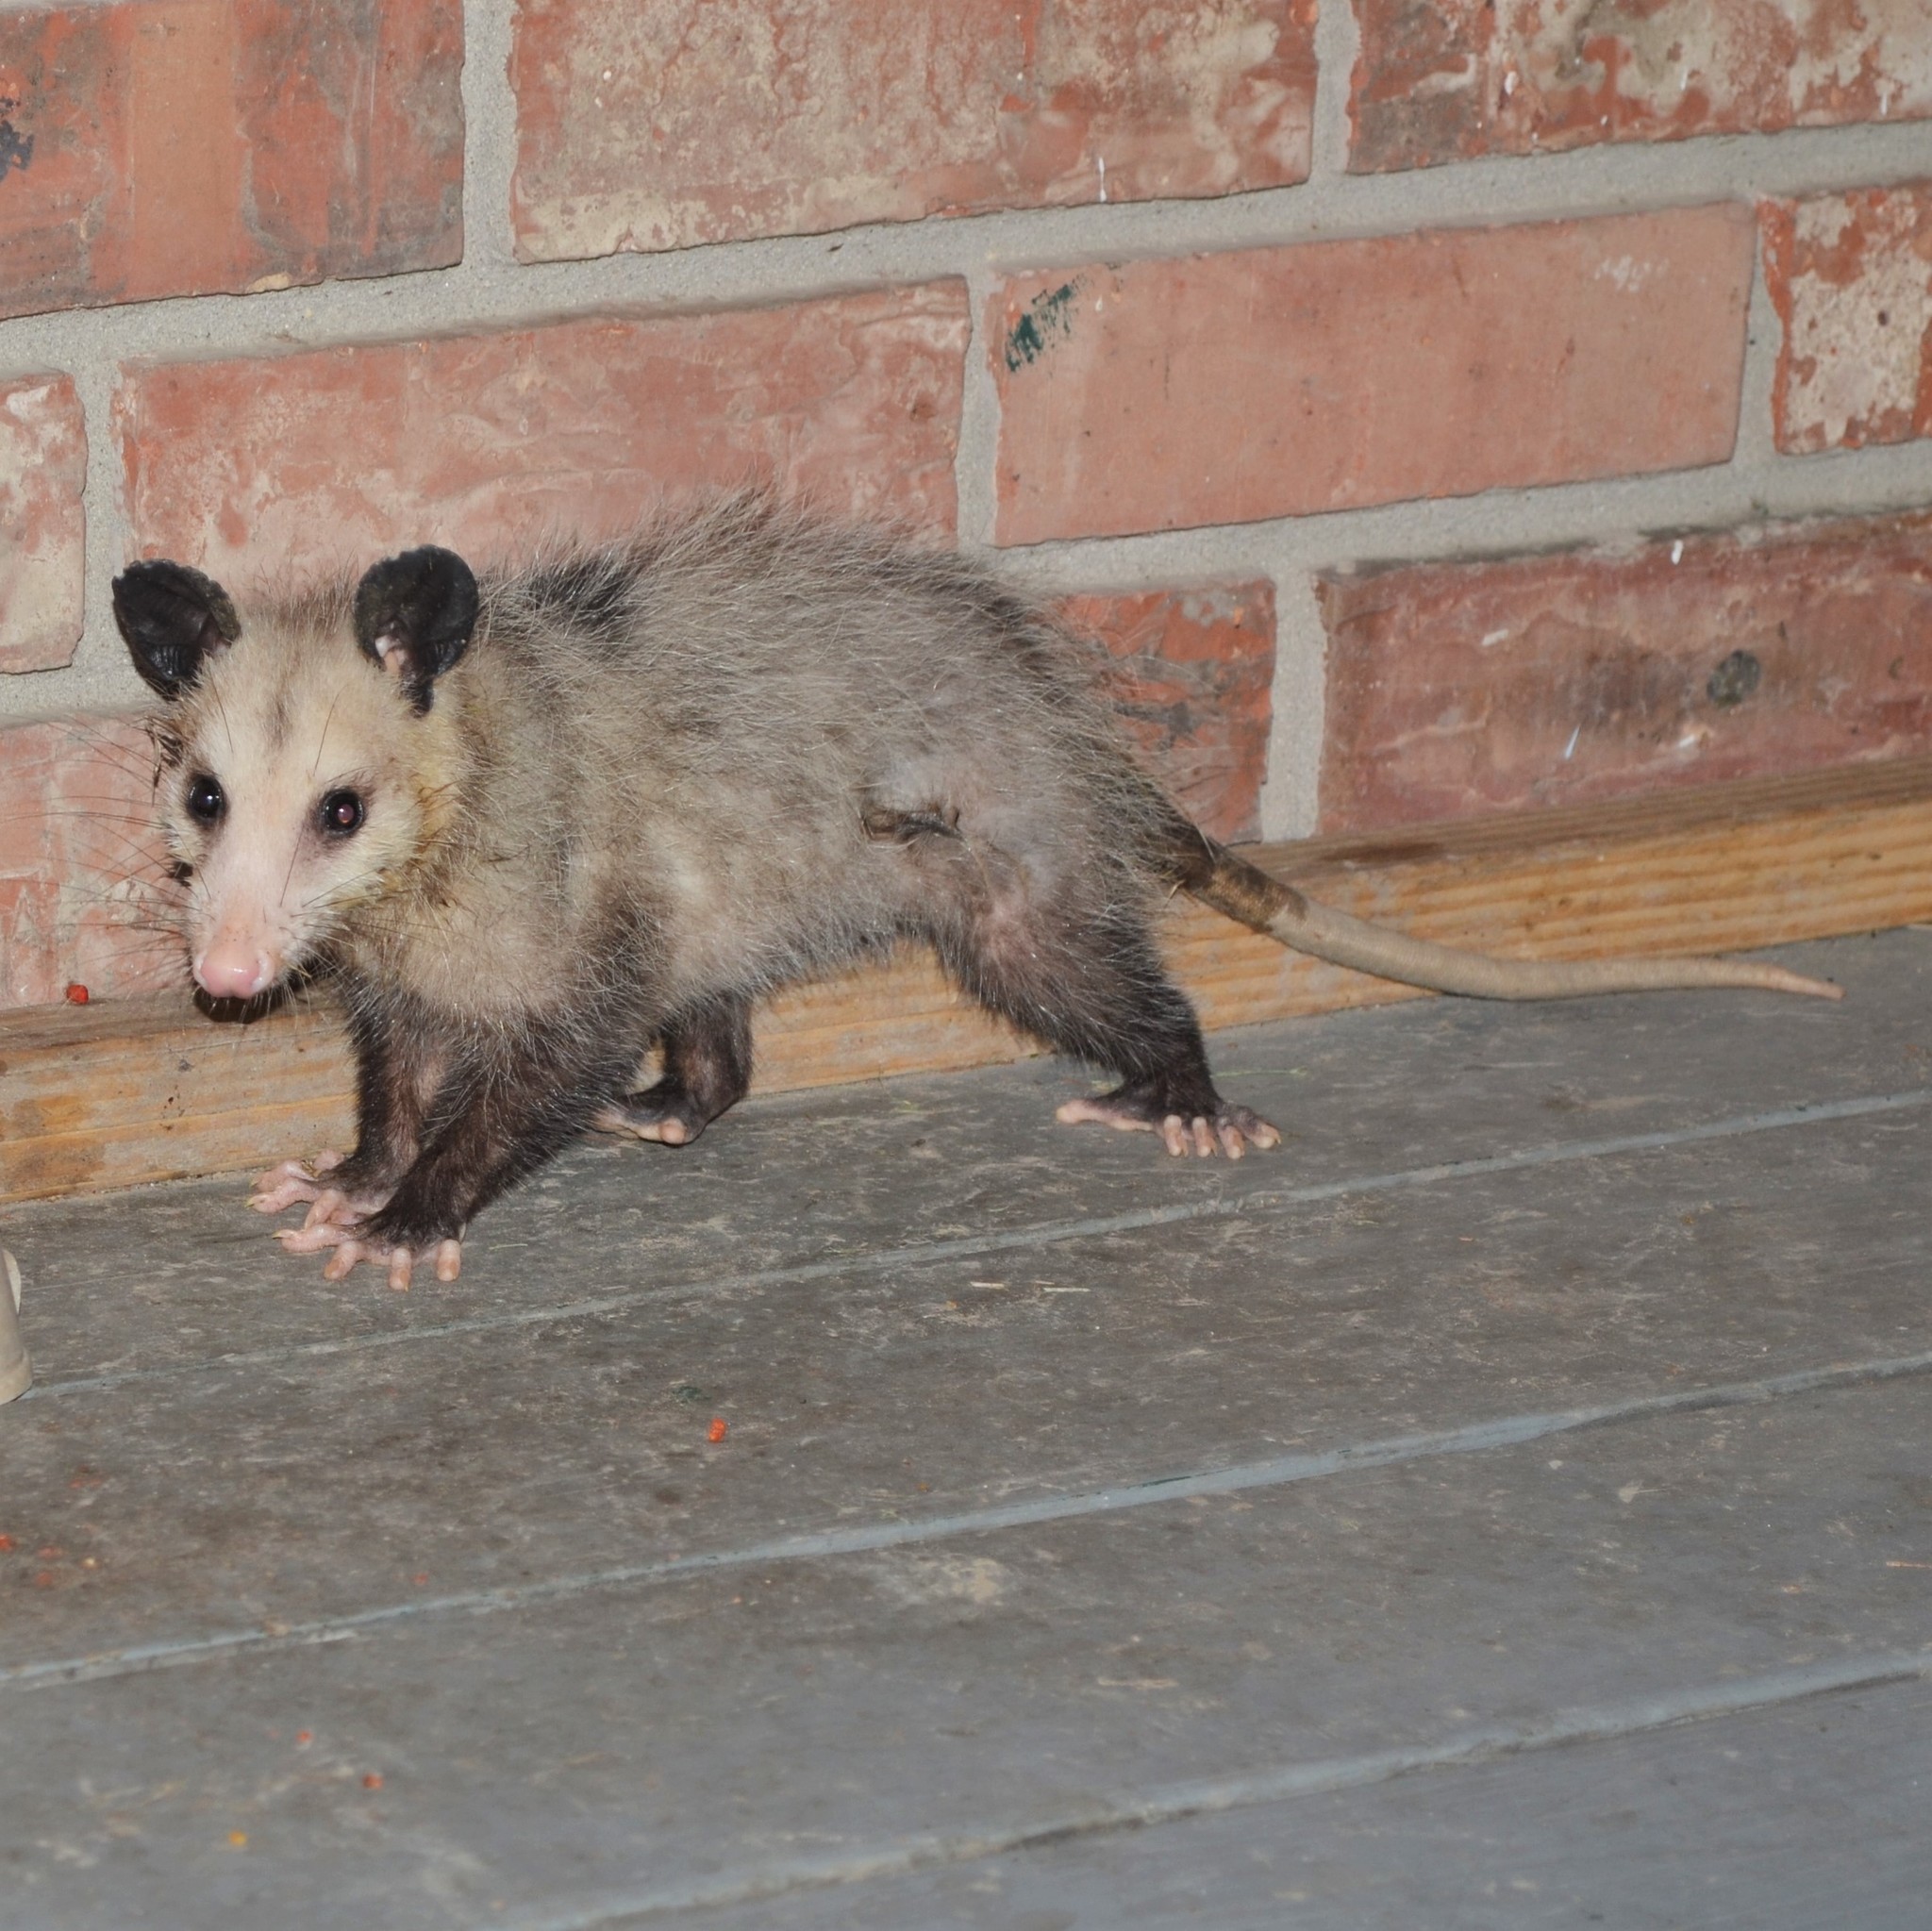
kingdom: Animalia
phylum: Chordata
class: Mammalia
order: Didelphimorphia
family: Didelphidae
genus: Didelphis
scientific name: Didelphis virginiana
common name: Virginia opossum
